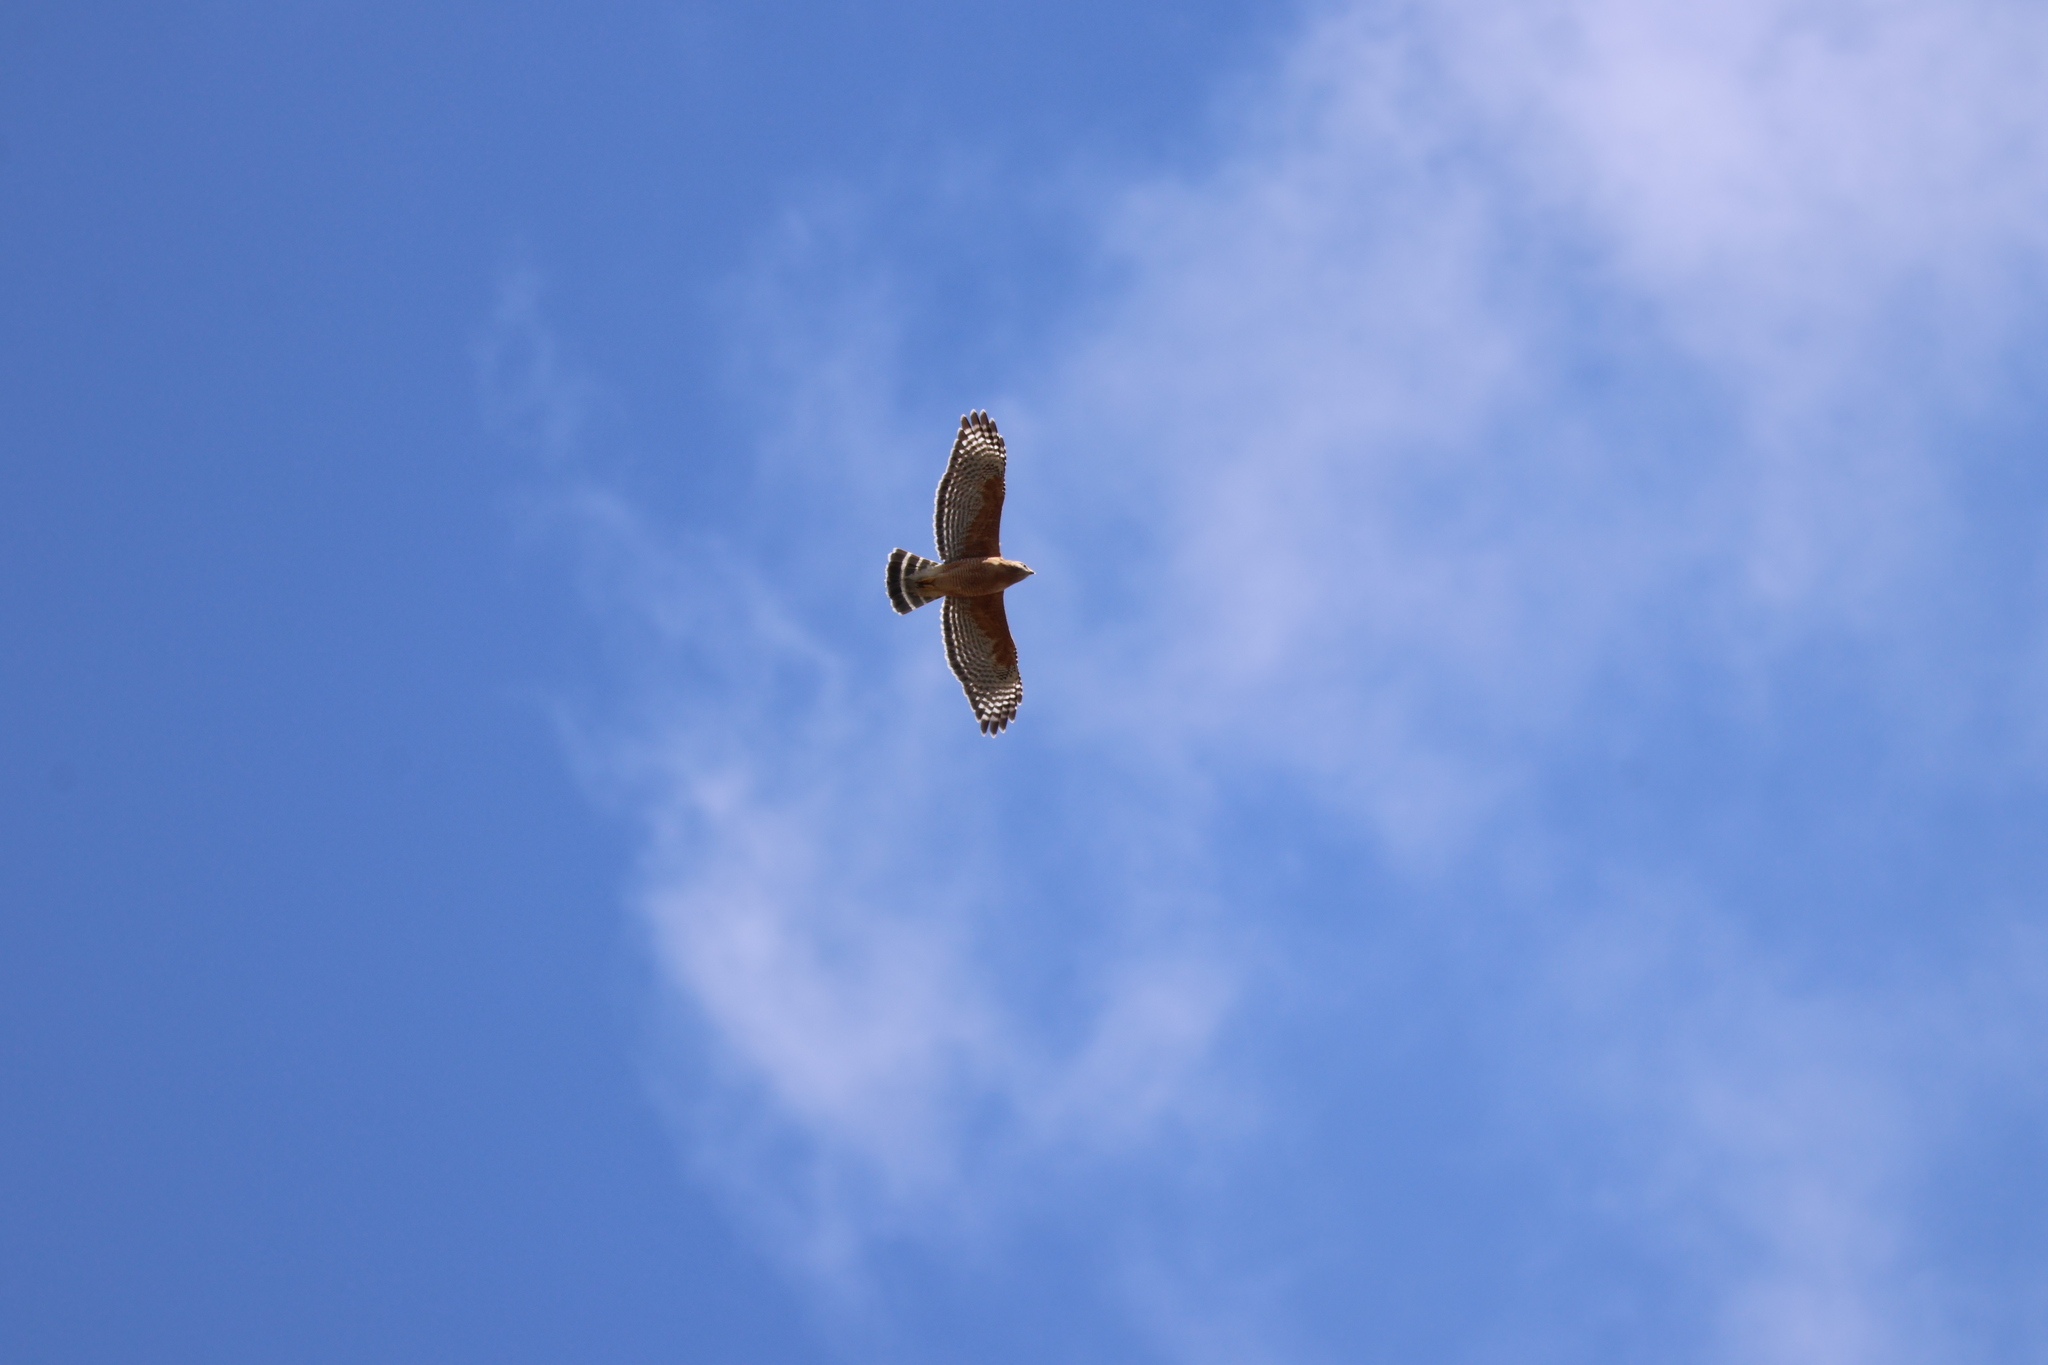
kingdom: Animalia
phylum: Chordata
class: Aves
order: Accipitriformes
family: Accipitridae
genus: Buteo
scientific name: Buteo lineatus
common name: Red-shouldered hawk
